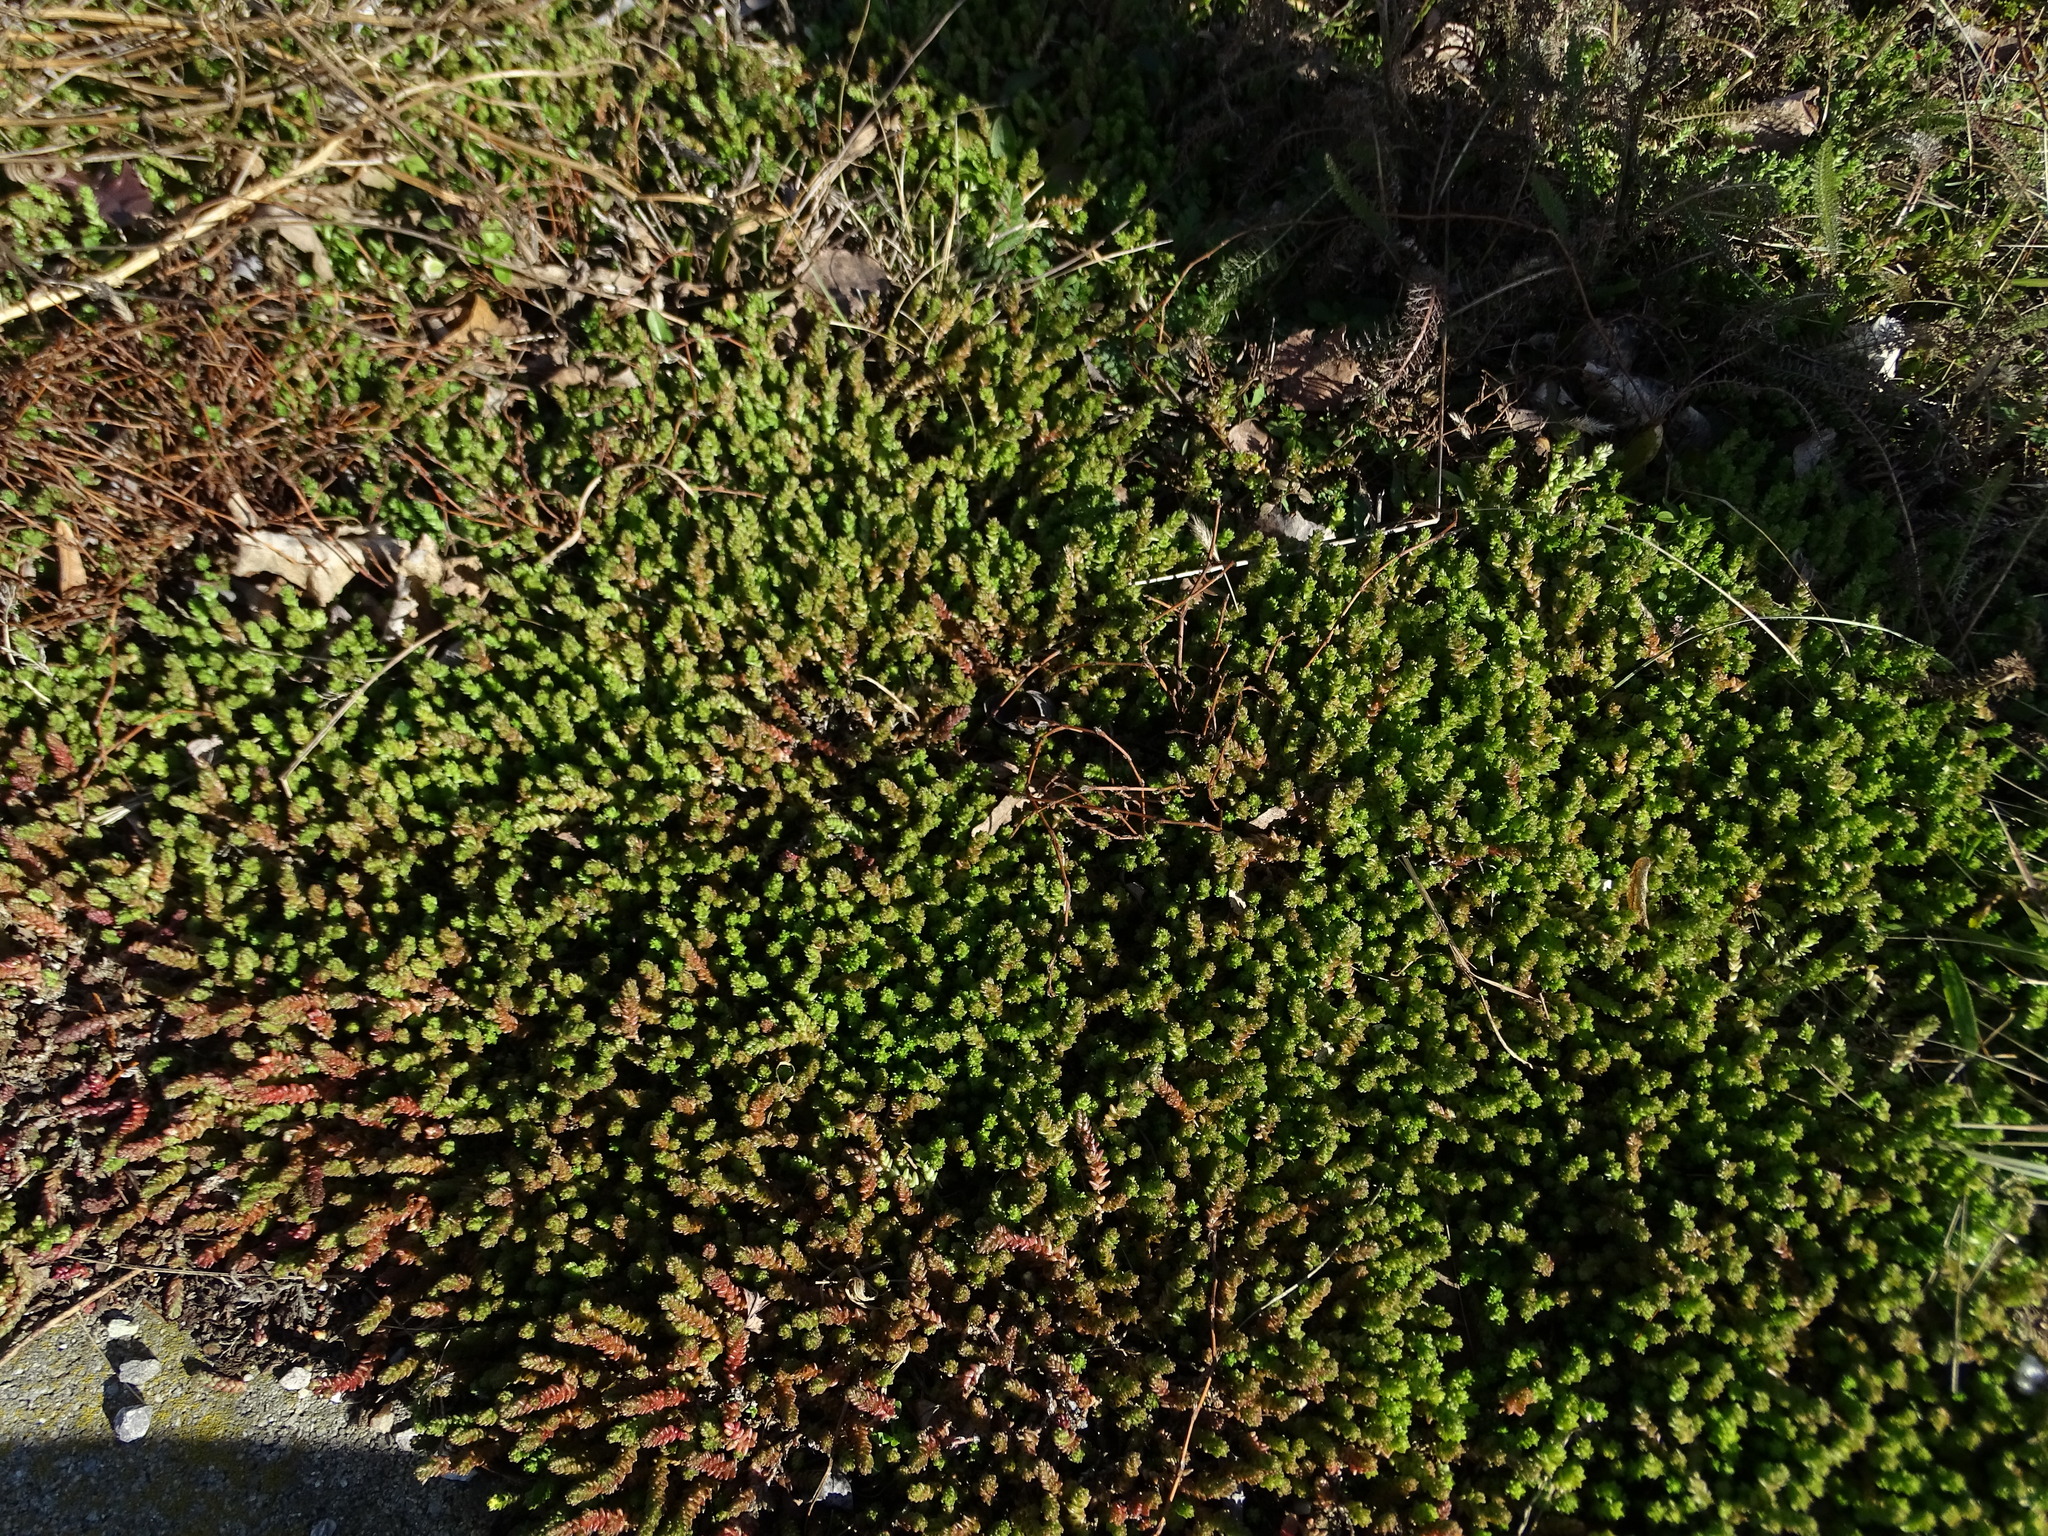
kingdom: Plantae
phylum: Tracheophyta
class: Magnoliopsida
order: Saxifragales
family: Crassulaceae
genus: Sedum
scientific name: Sedum acre
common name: Biting stonecrop
